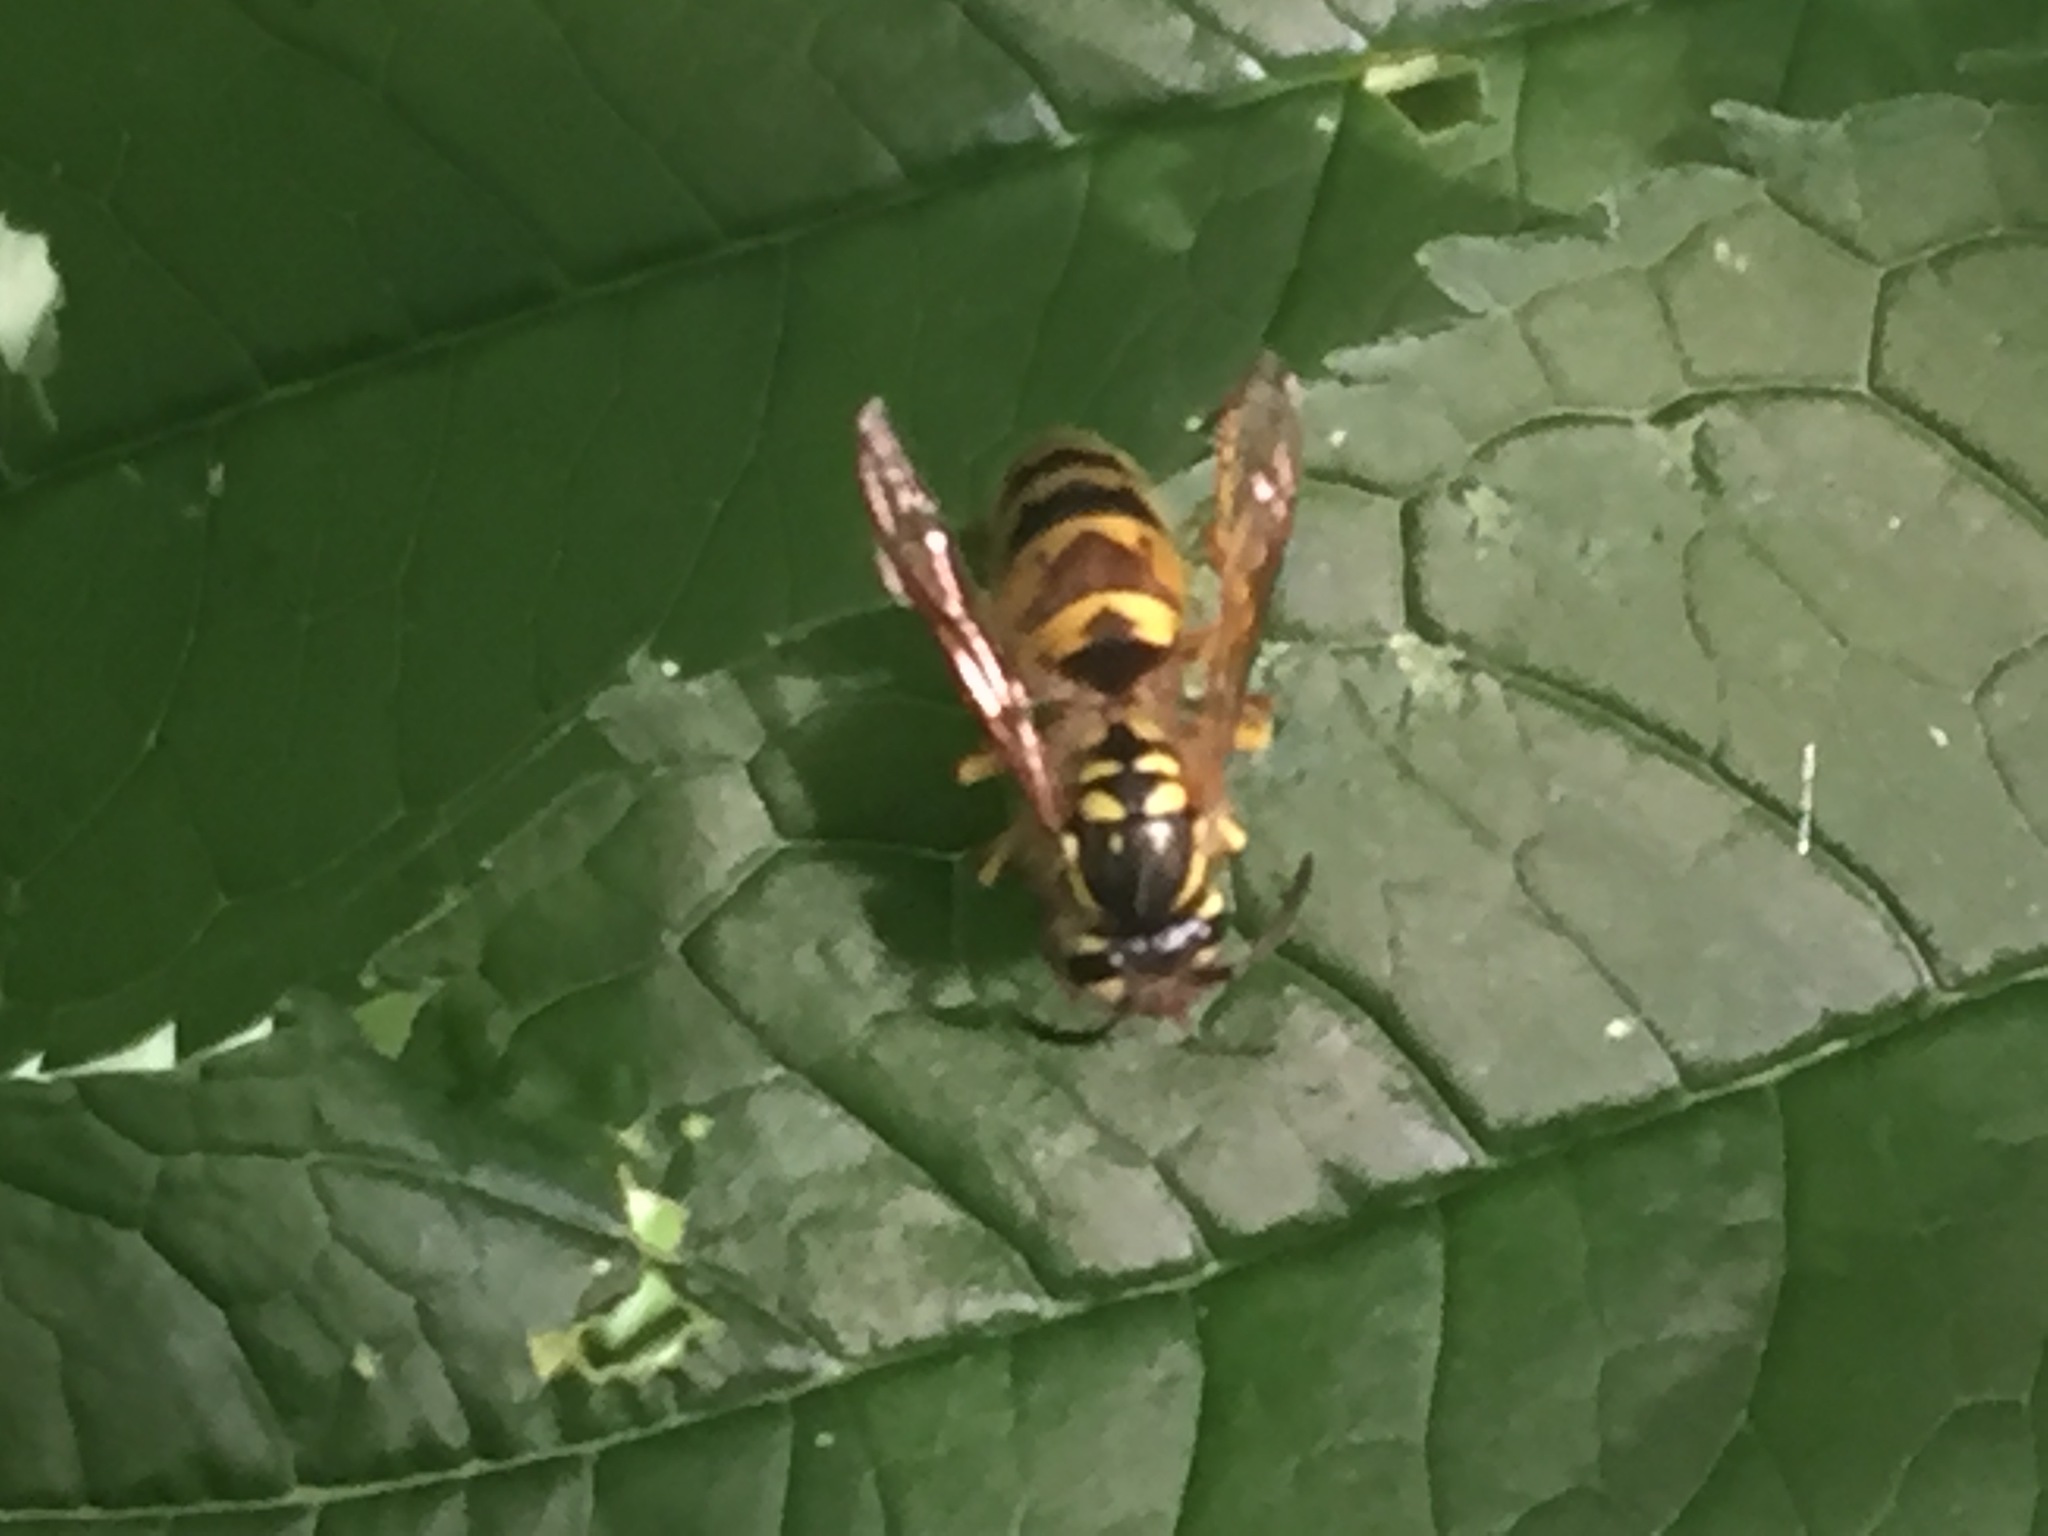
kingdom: Animalia
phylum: Arthropoda
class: Insecta
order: Hymenoptera
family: Vespidae
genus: Vespula
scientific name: Vespula flavopilosa
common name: Downy yellowjacket
